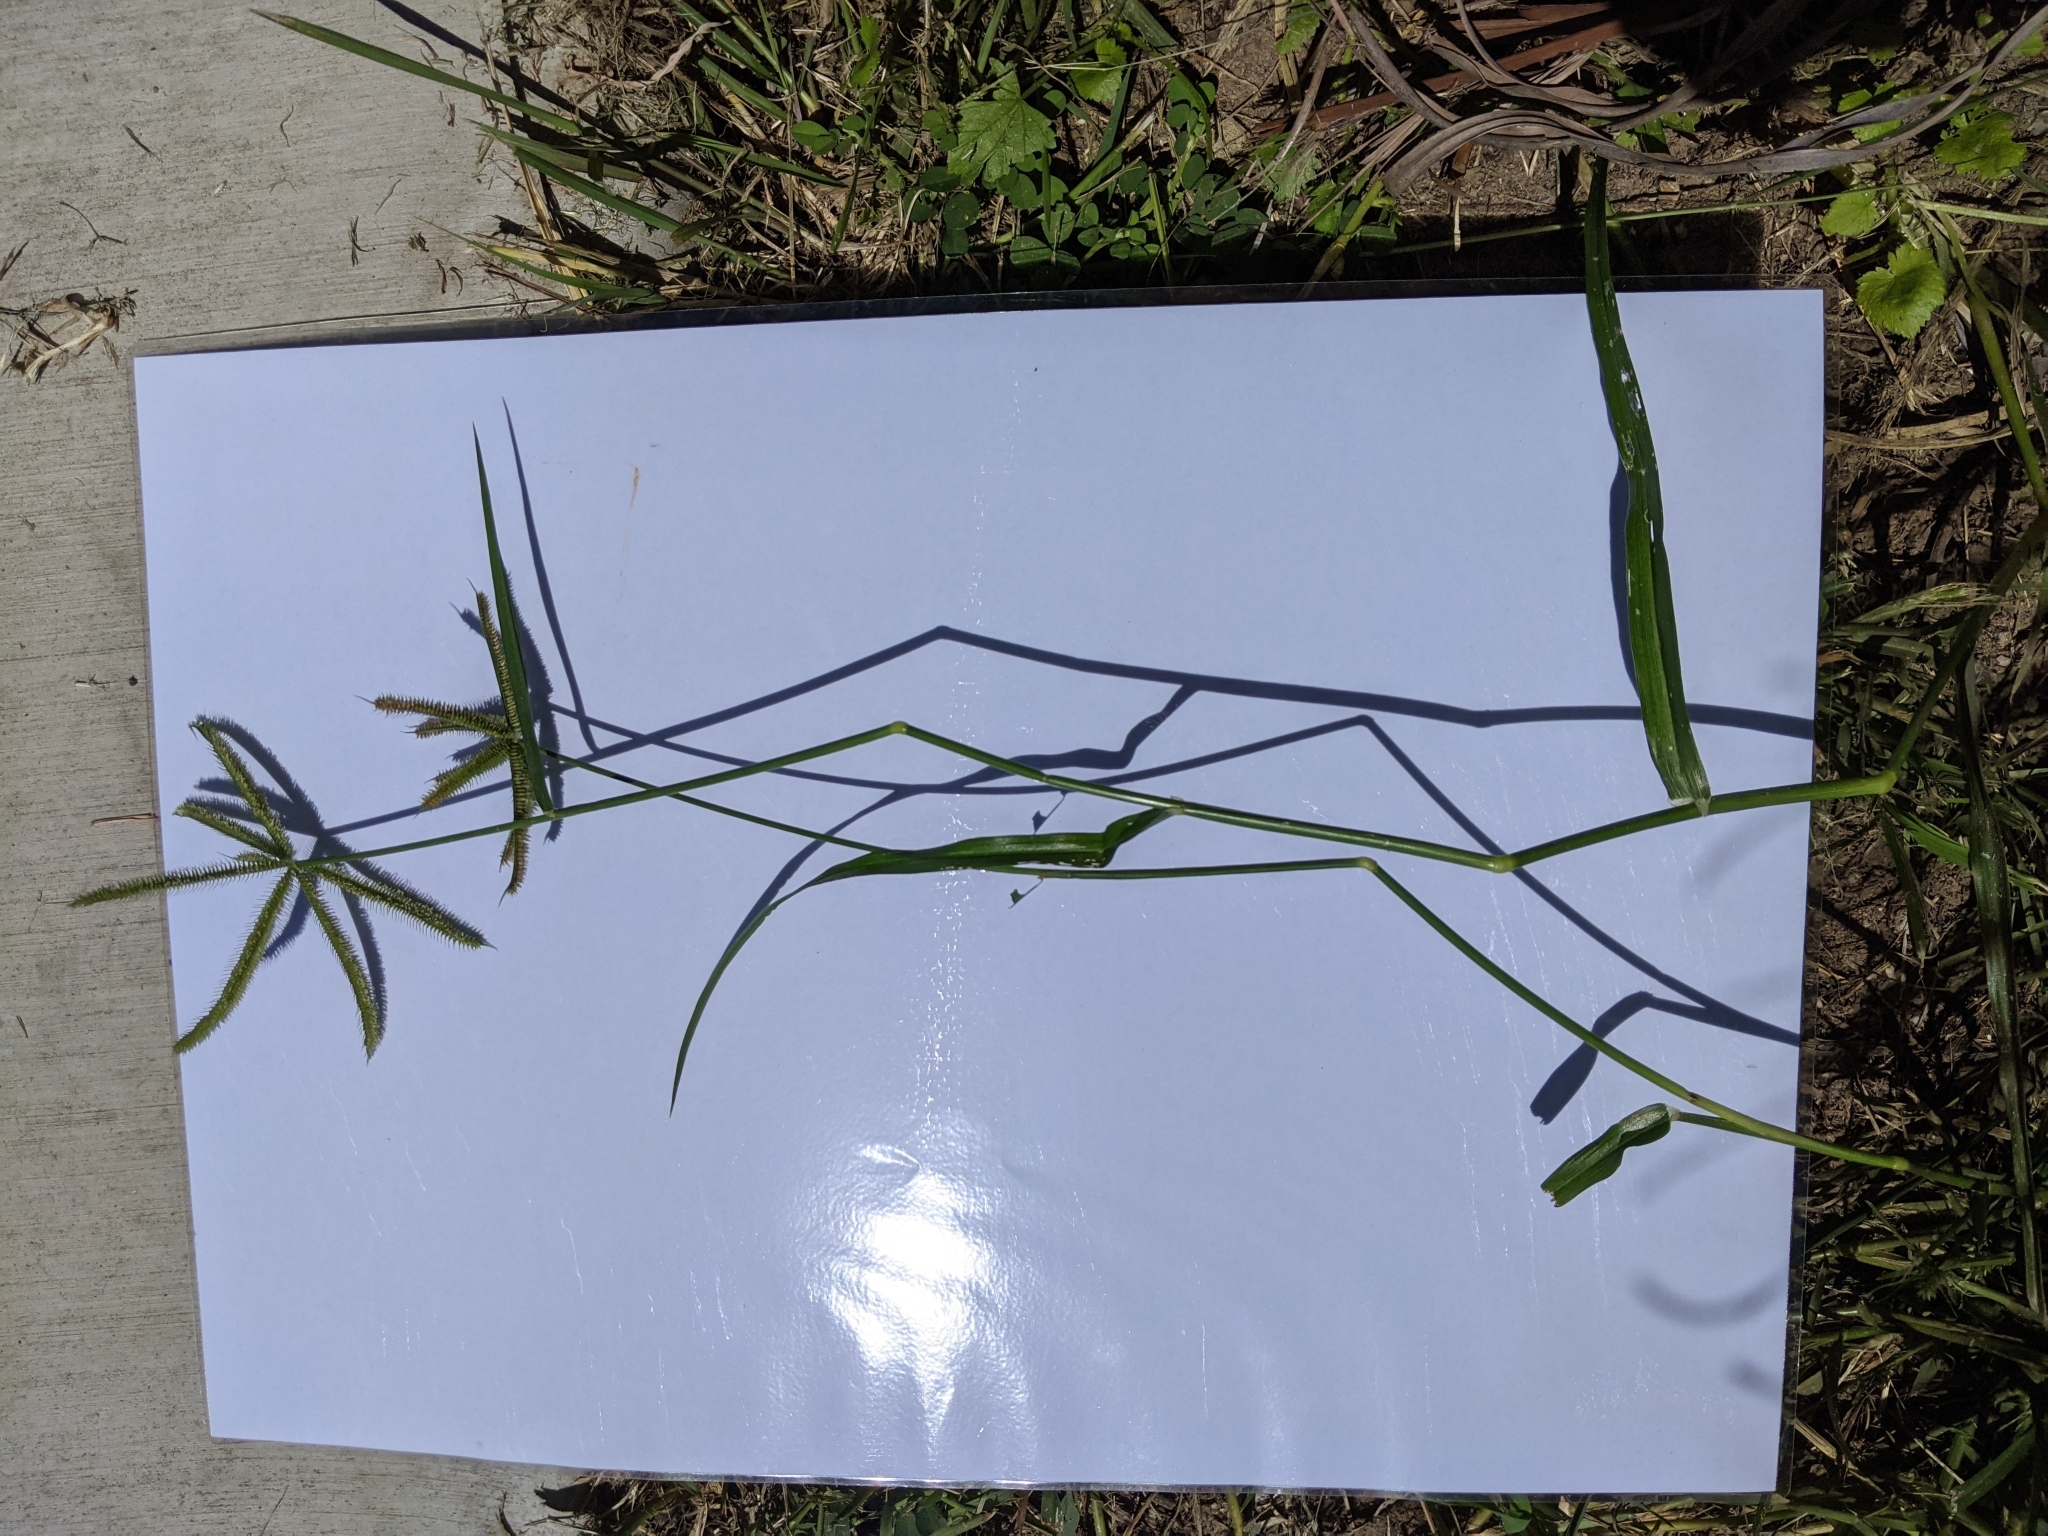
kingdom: Plantae
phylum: Tracheophyta
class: Liliopsida
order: Poales
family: Poaceae
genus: Eleusine
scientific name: Eleusine indica
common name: Yard-grass
